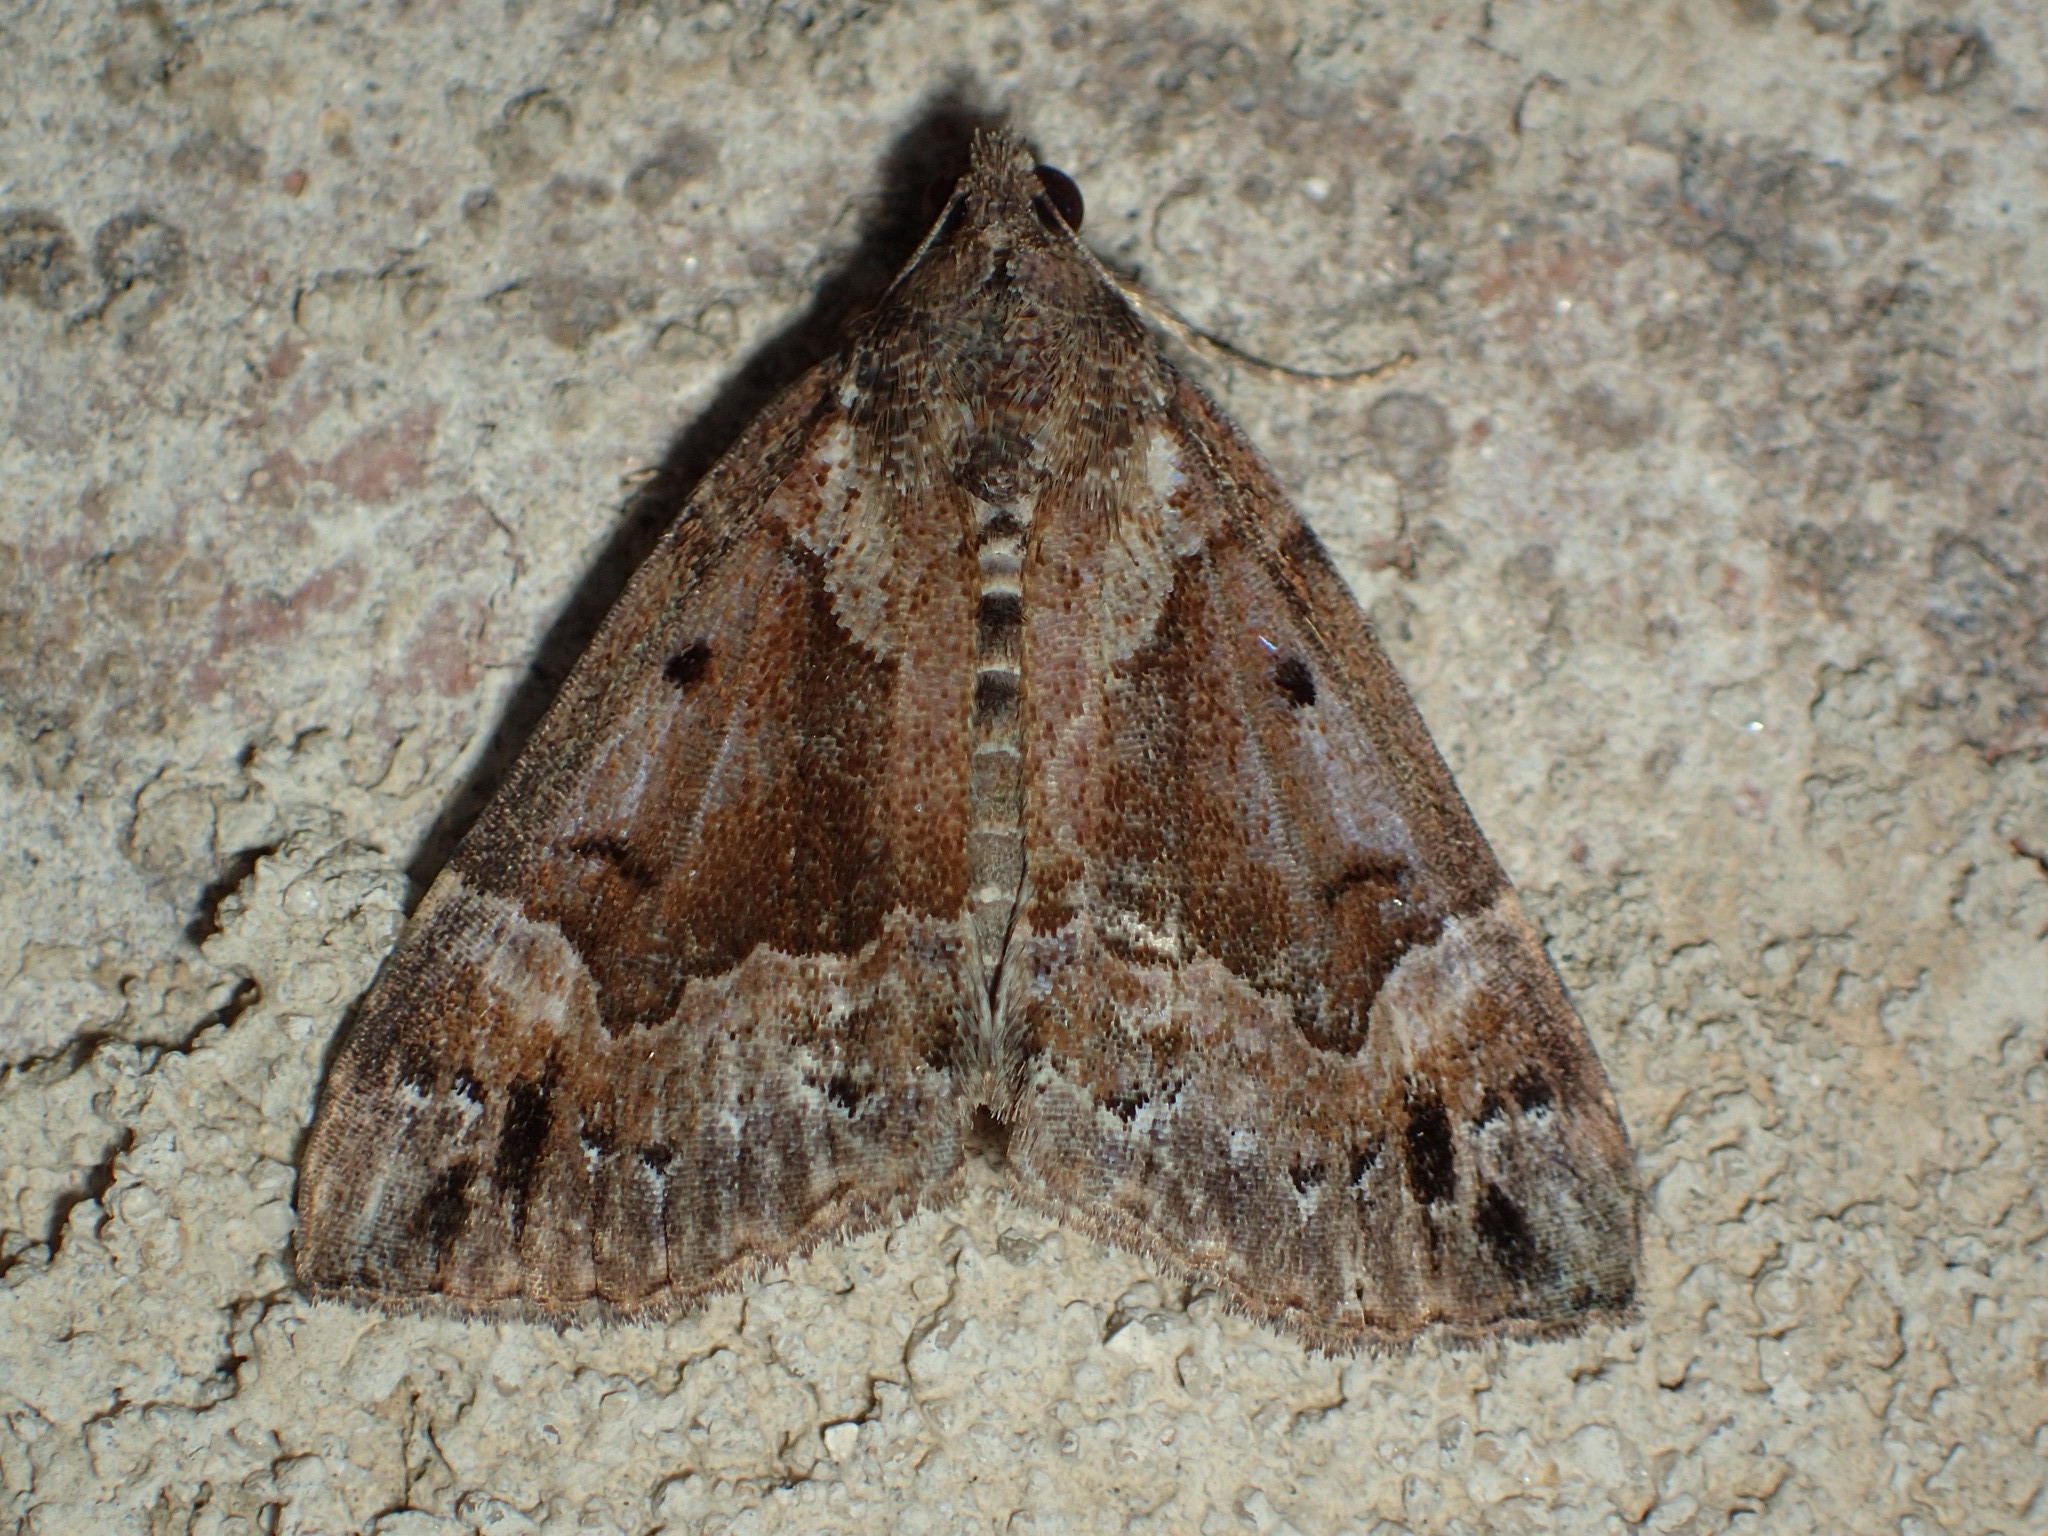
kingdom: Animalia
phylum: Arthropoda
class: Insecta
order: Lepidoptera
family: Erebidae
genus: Hypena
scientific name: Hypena palparia
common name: Mottled bomolocha moth
